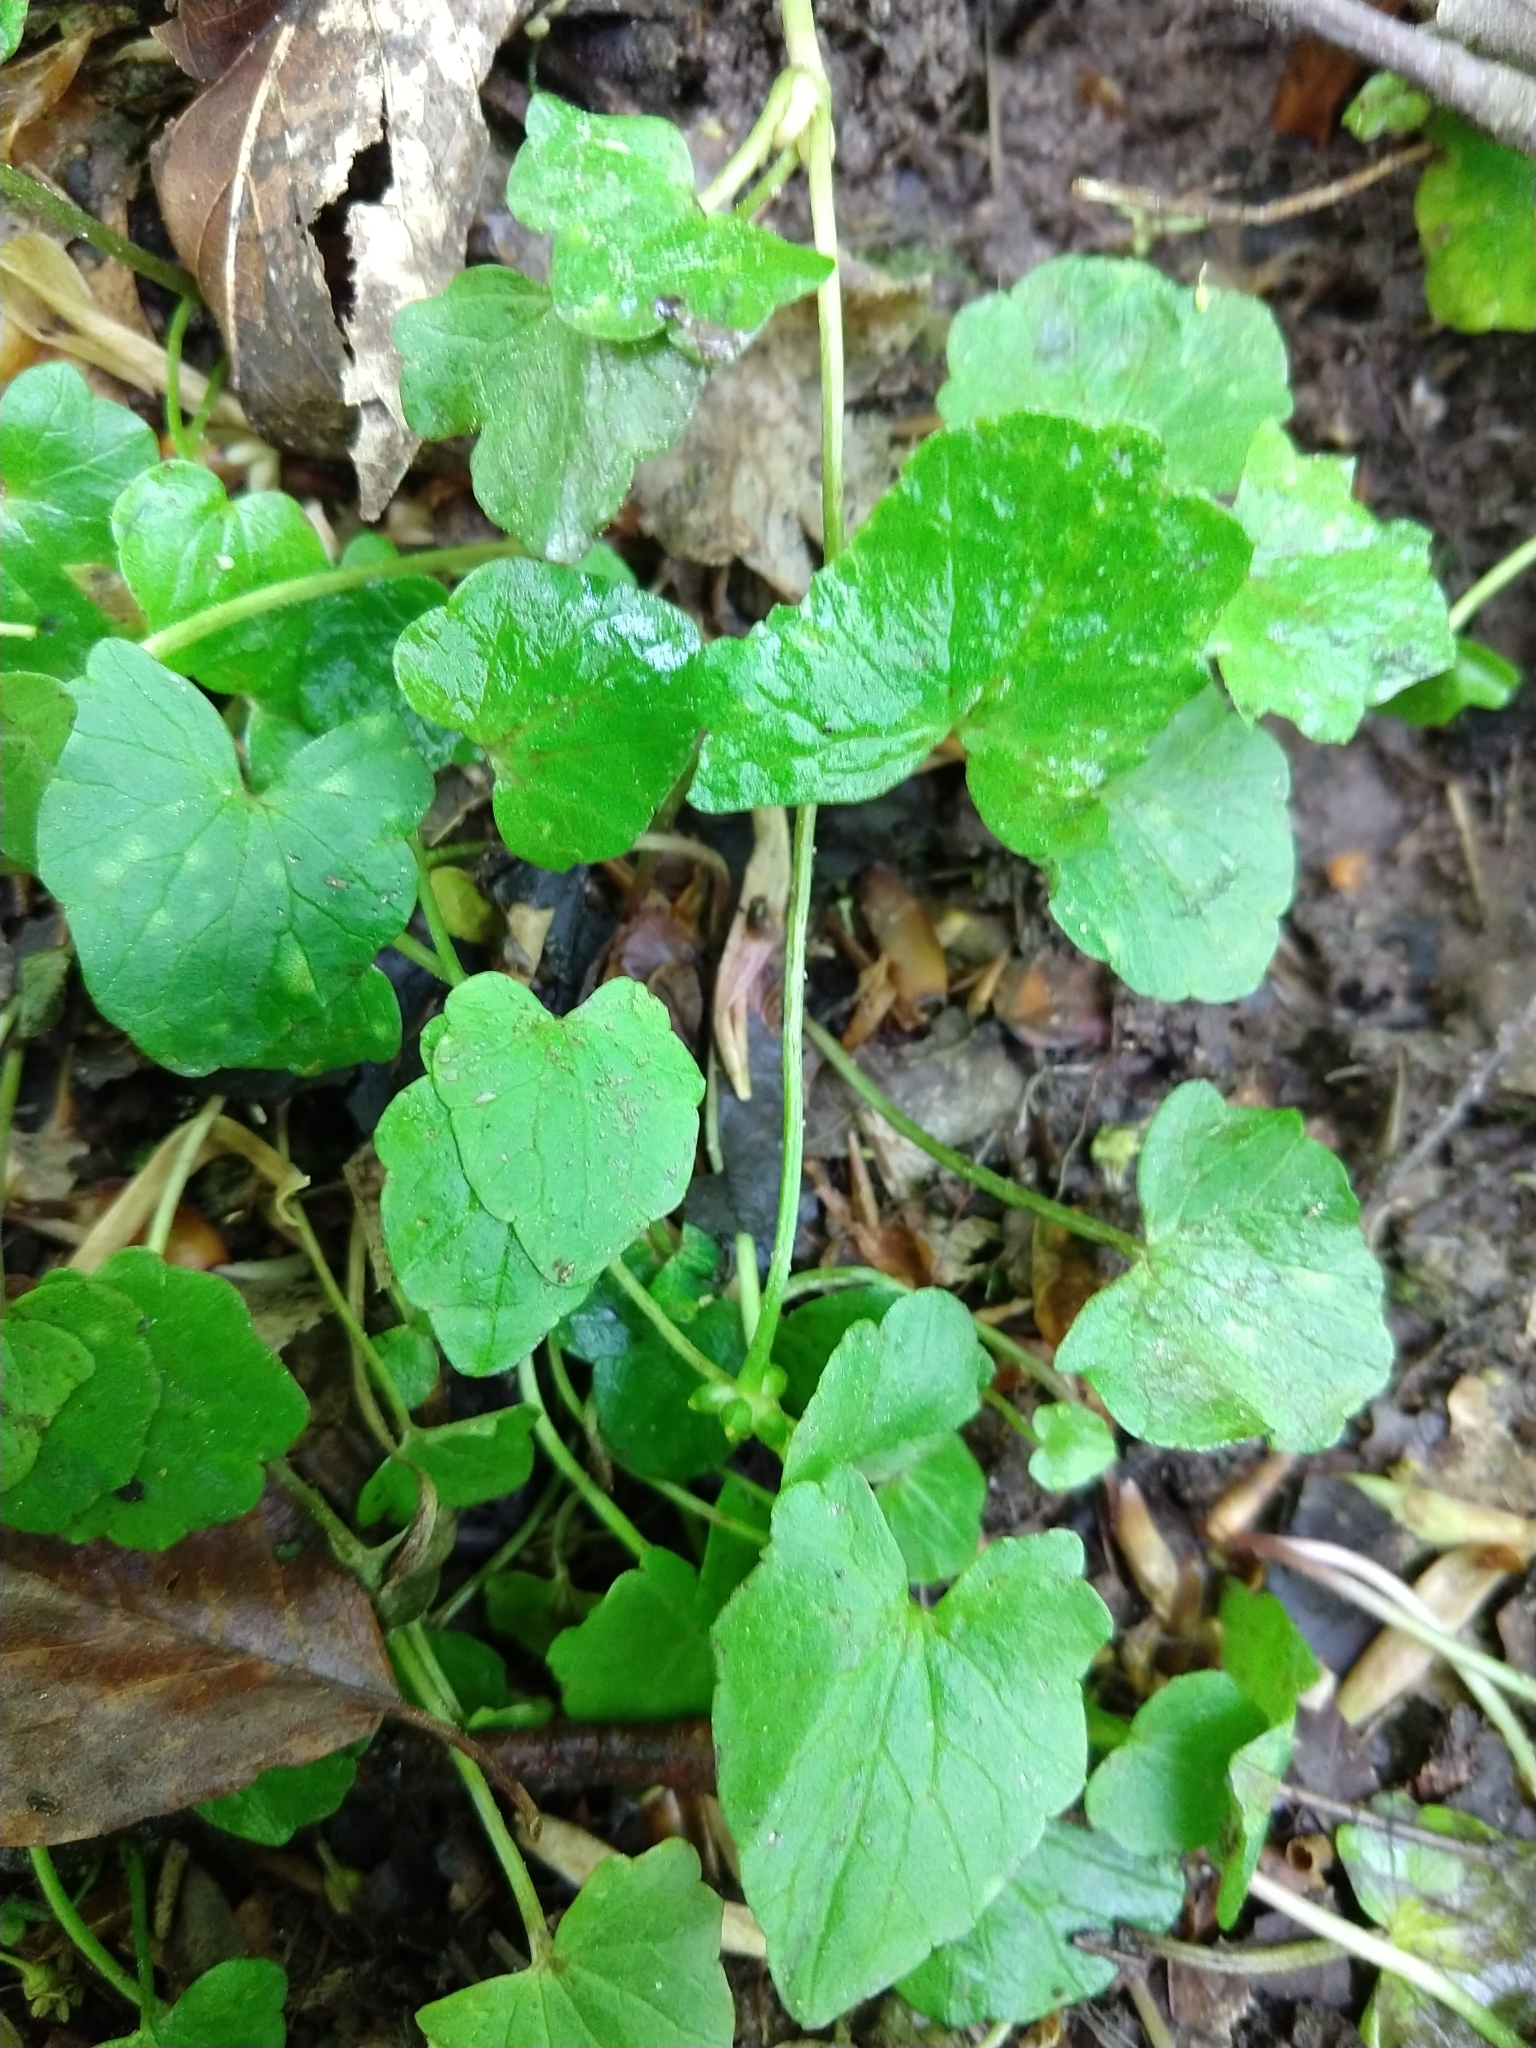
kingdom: Plantae
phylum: Tracheophyta
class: Magnoliopsida
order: Ranunculales
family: Ranunculaceae
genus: Ficaria
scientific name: Ficaria verna
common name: Lesser celandine
